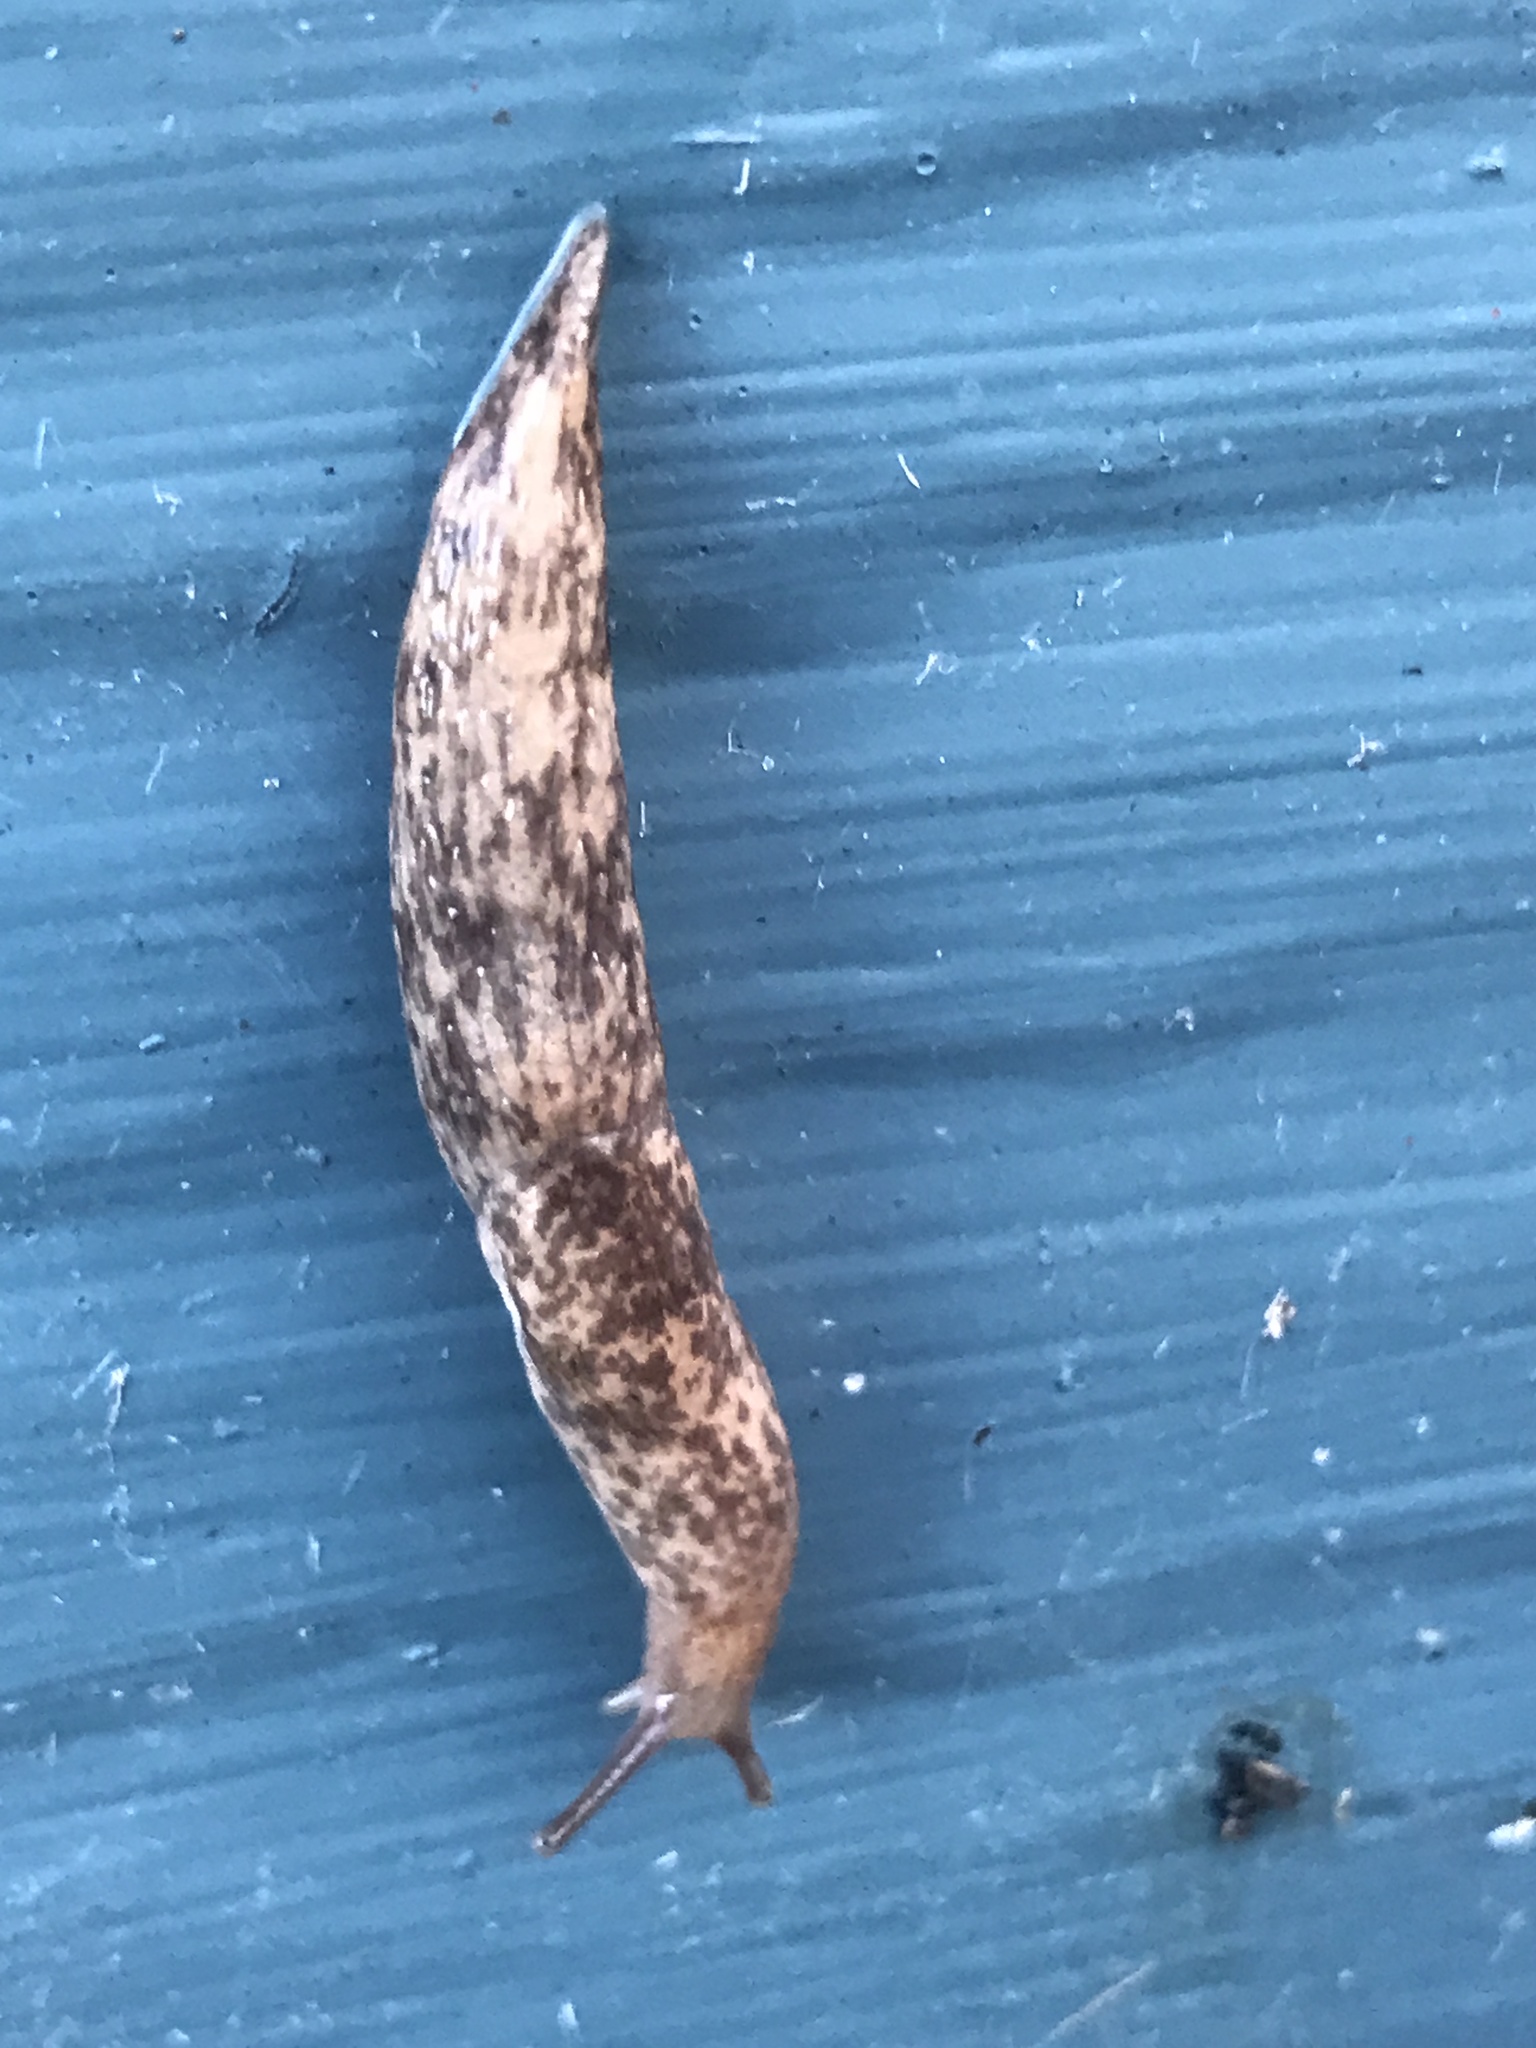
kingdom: Animalia
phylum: Mollusca
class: Gastropoda
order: Stylommatophora
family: Agriolimacidae
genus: Deroceras
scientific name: Deroceras reticulatum
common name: Gray field slug
